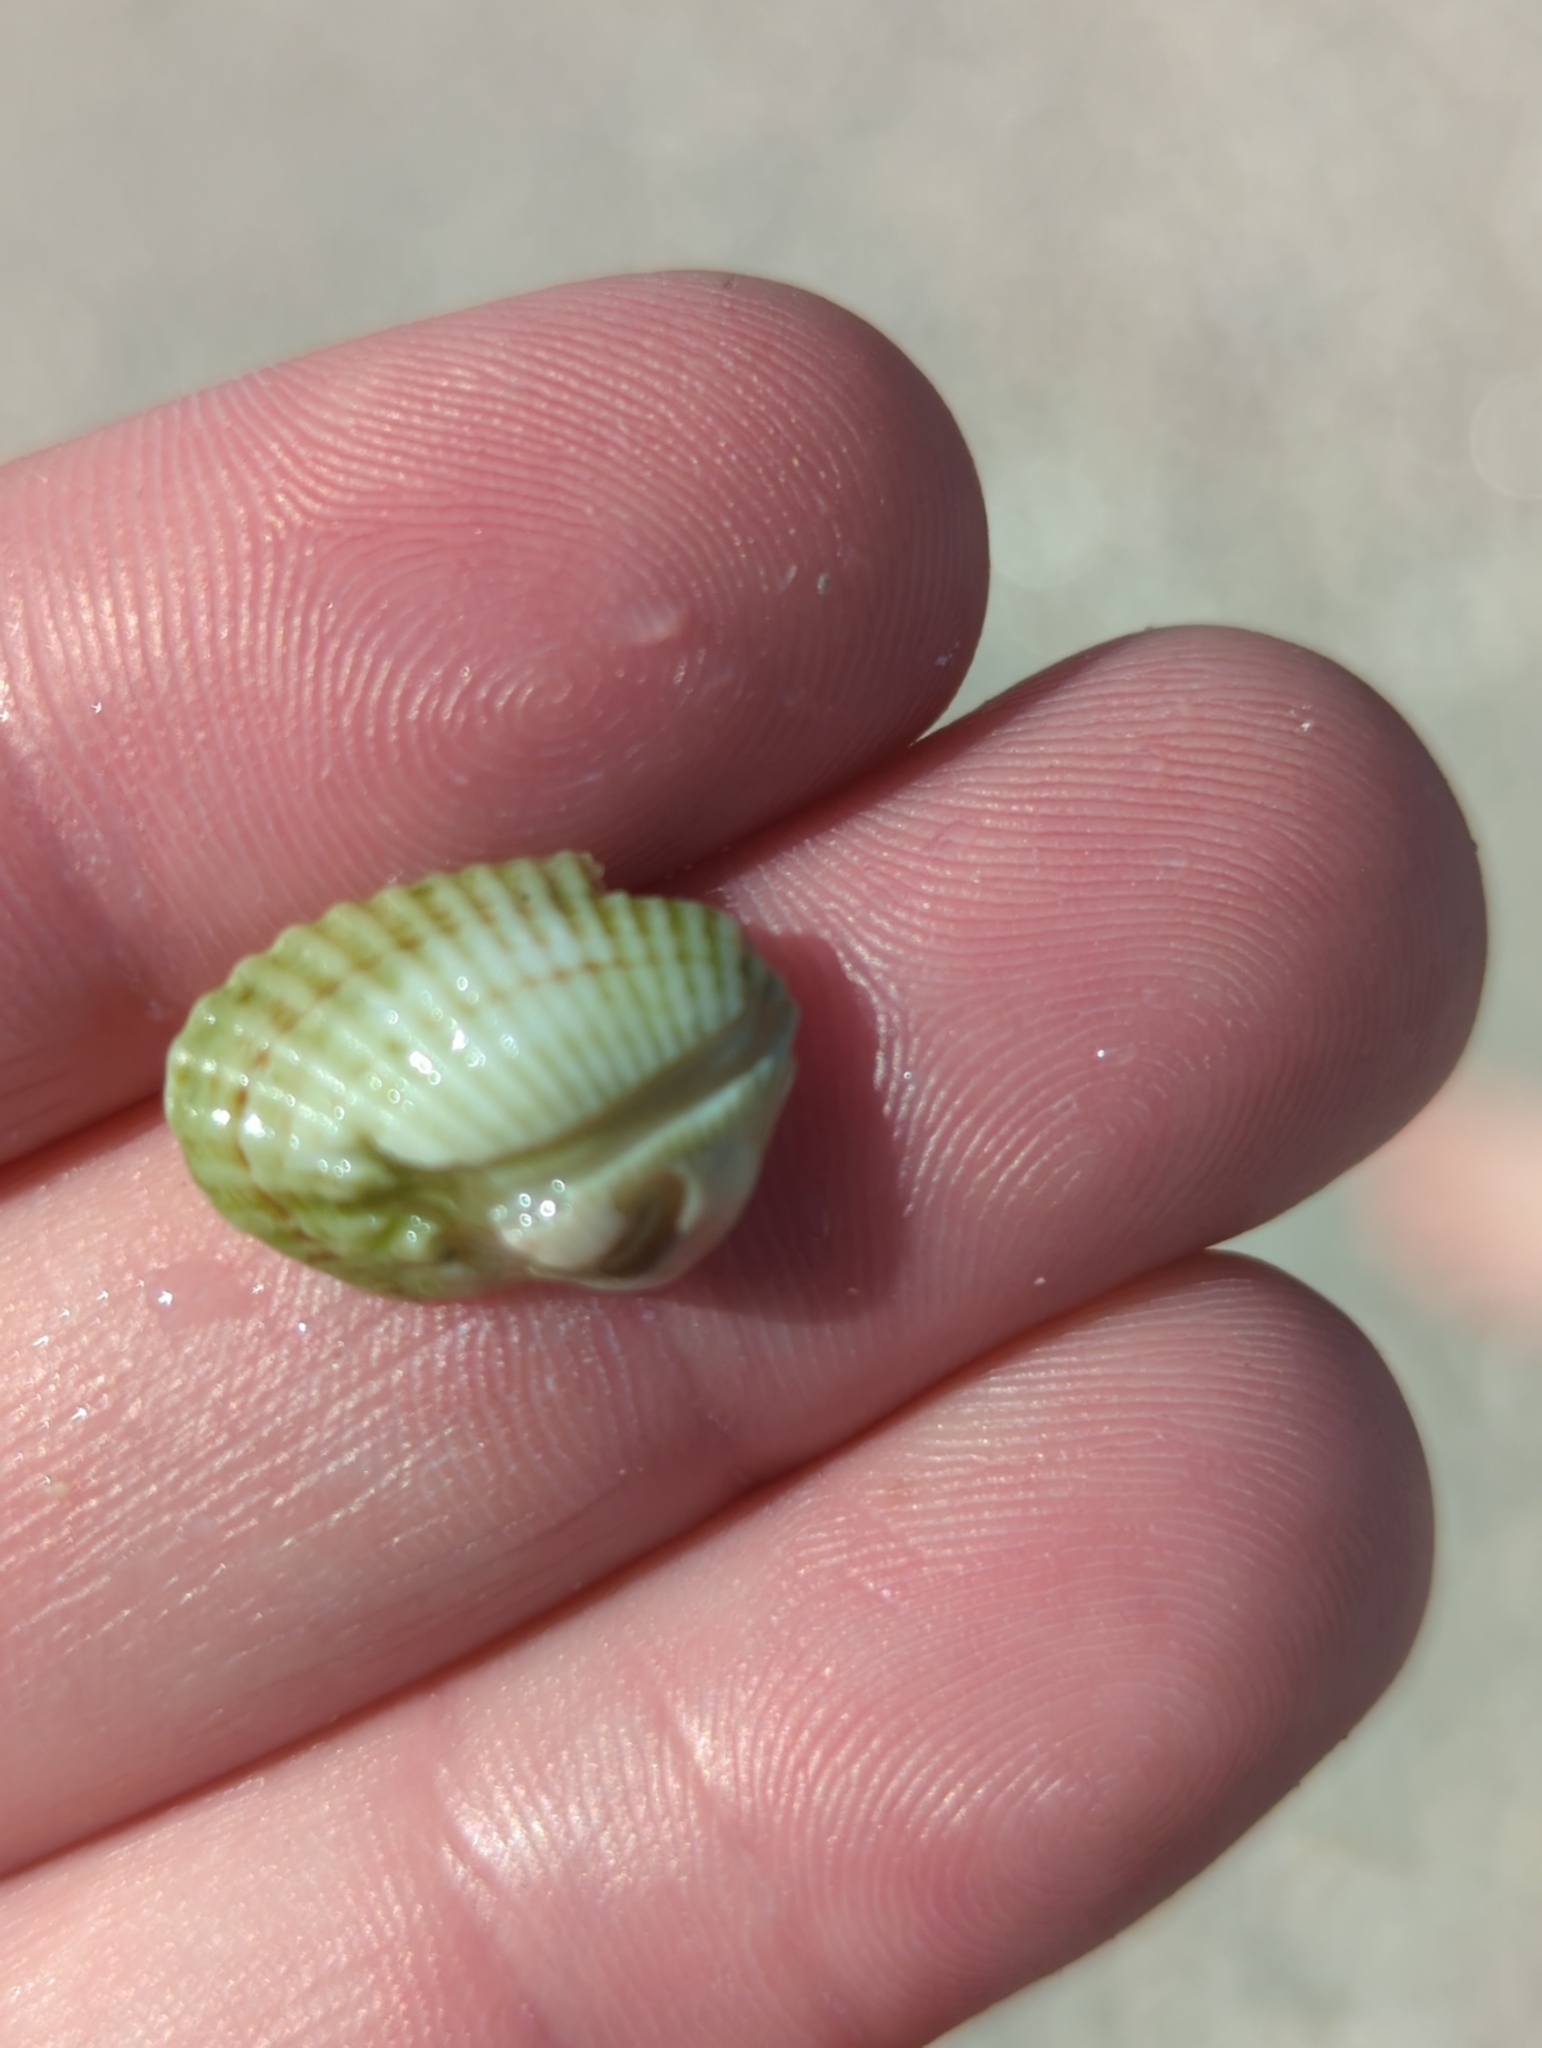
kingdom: Animalia
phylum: Mollusca
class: Bivalvia
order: Arcida
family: Arcidae
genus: Anadara
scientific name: Anadara transversa
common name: Transverse ark
